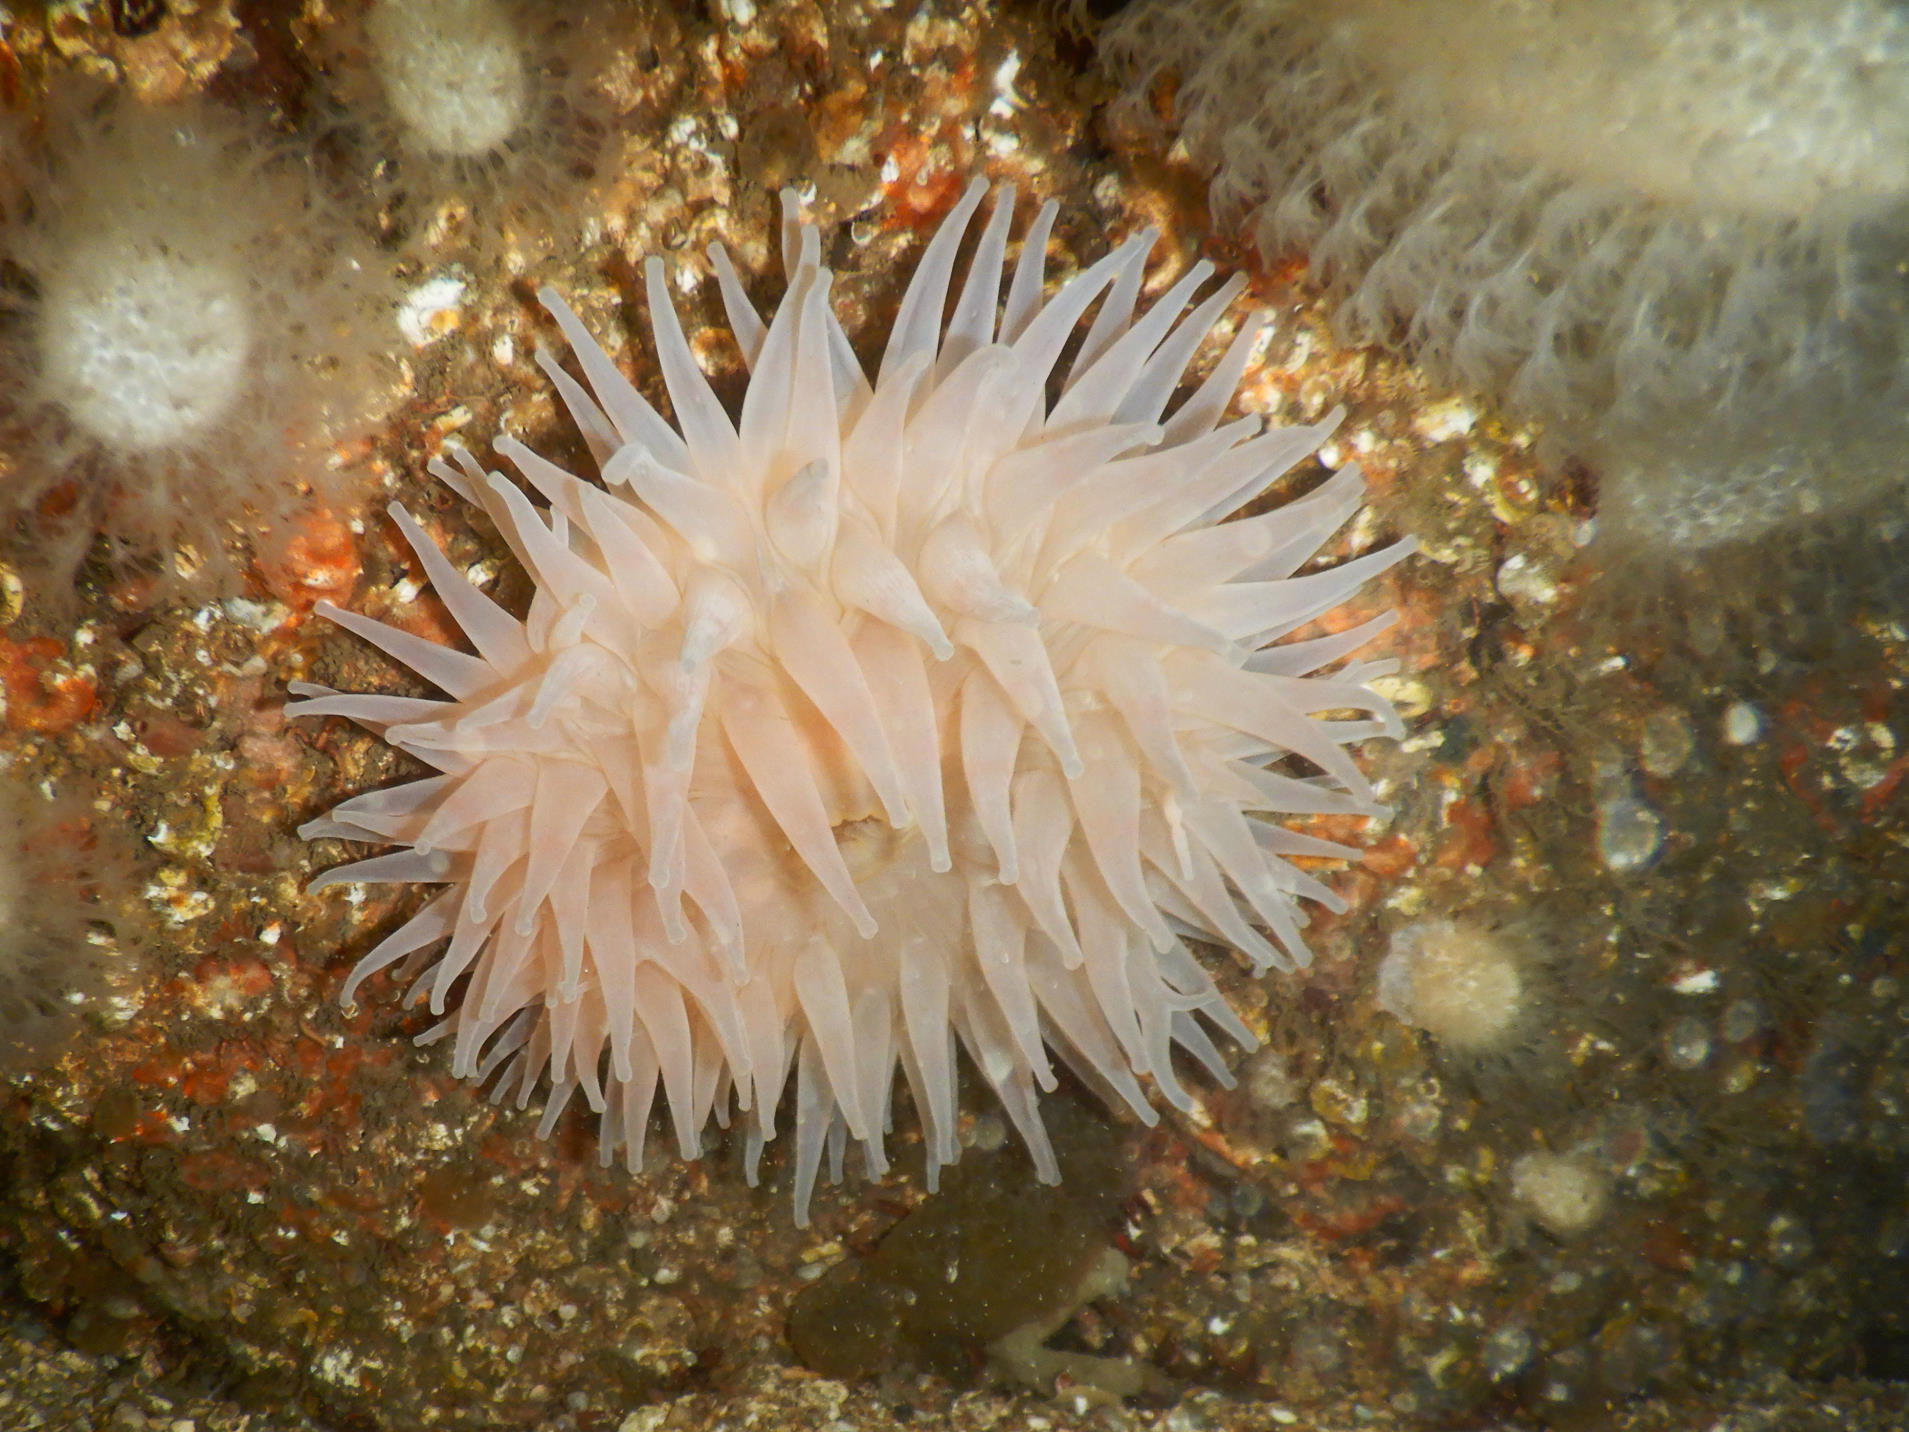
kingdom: Animalia
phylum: Cnidaria
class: Anthozoa
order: Actiniaria
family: Actiniidae
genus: Urticina
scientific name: Urticina eques
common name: Horseman anemone
